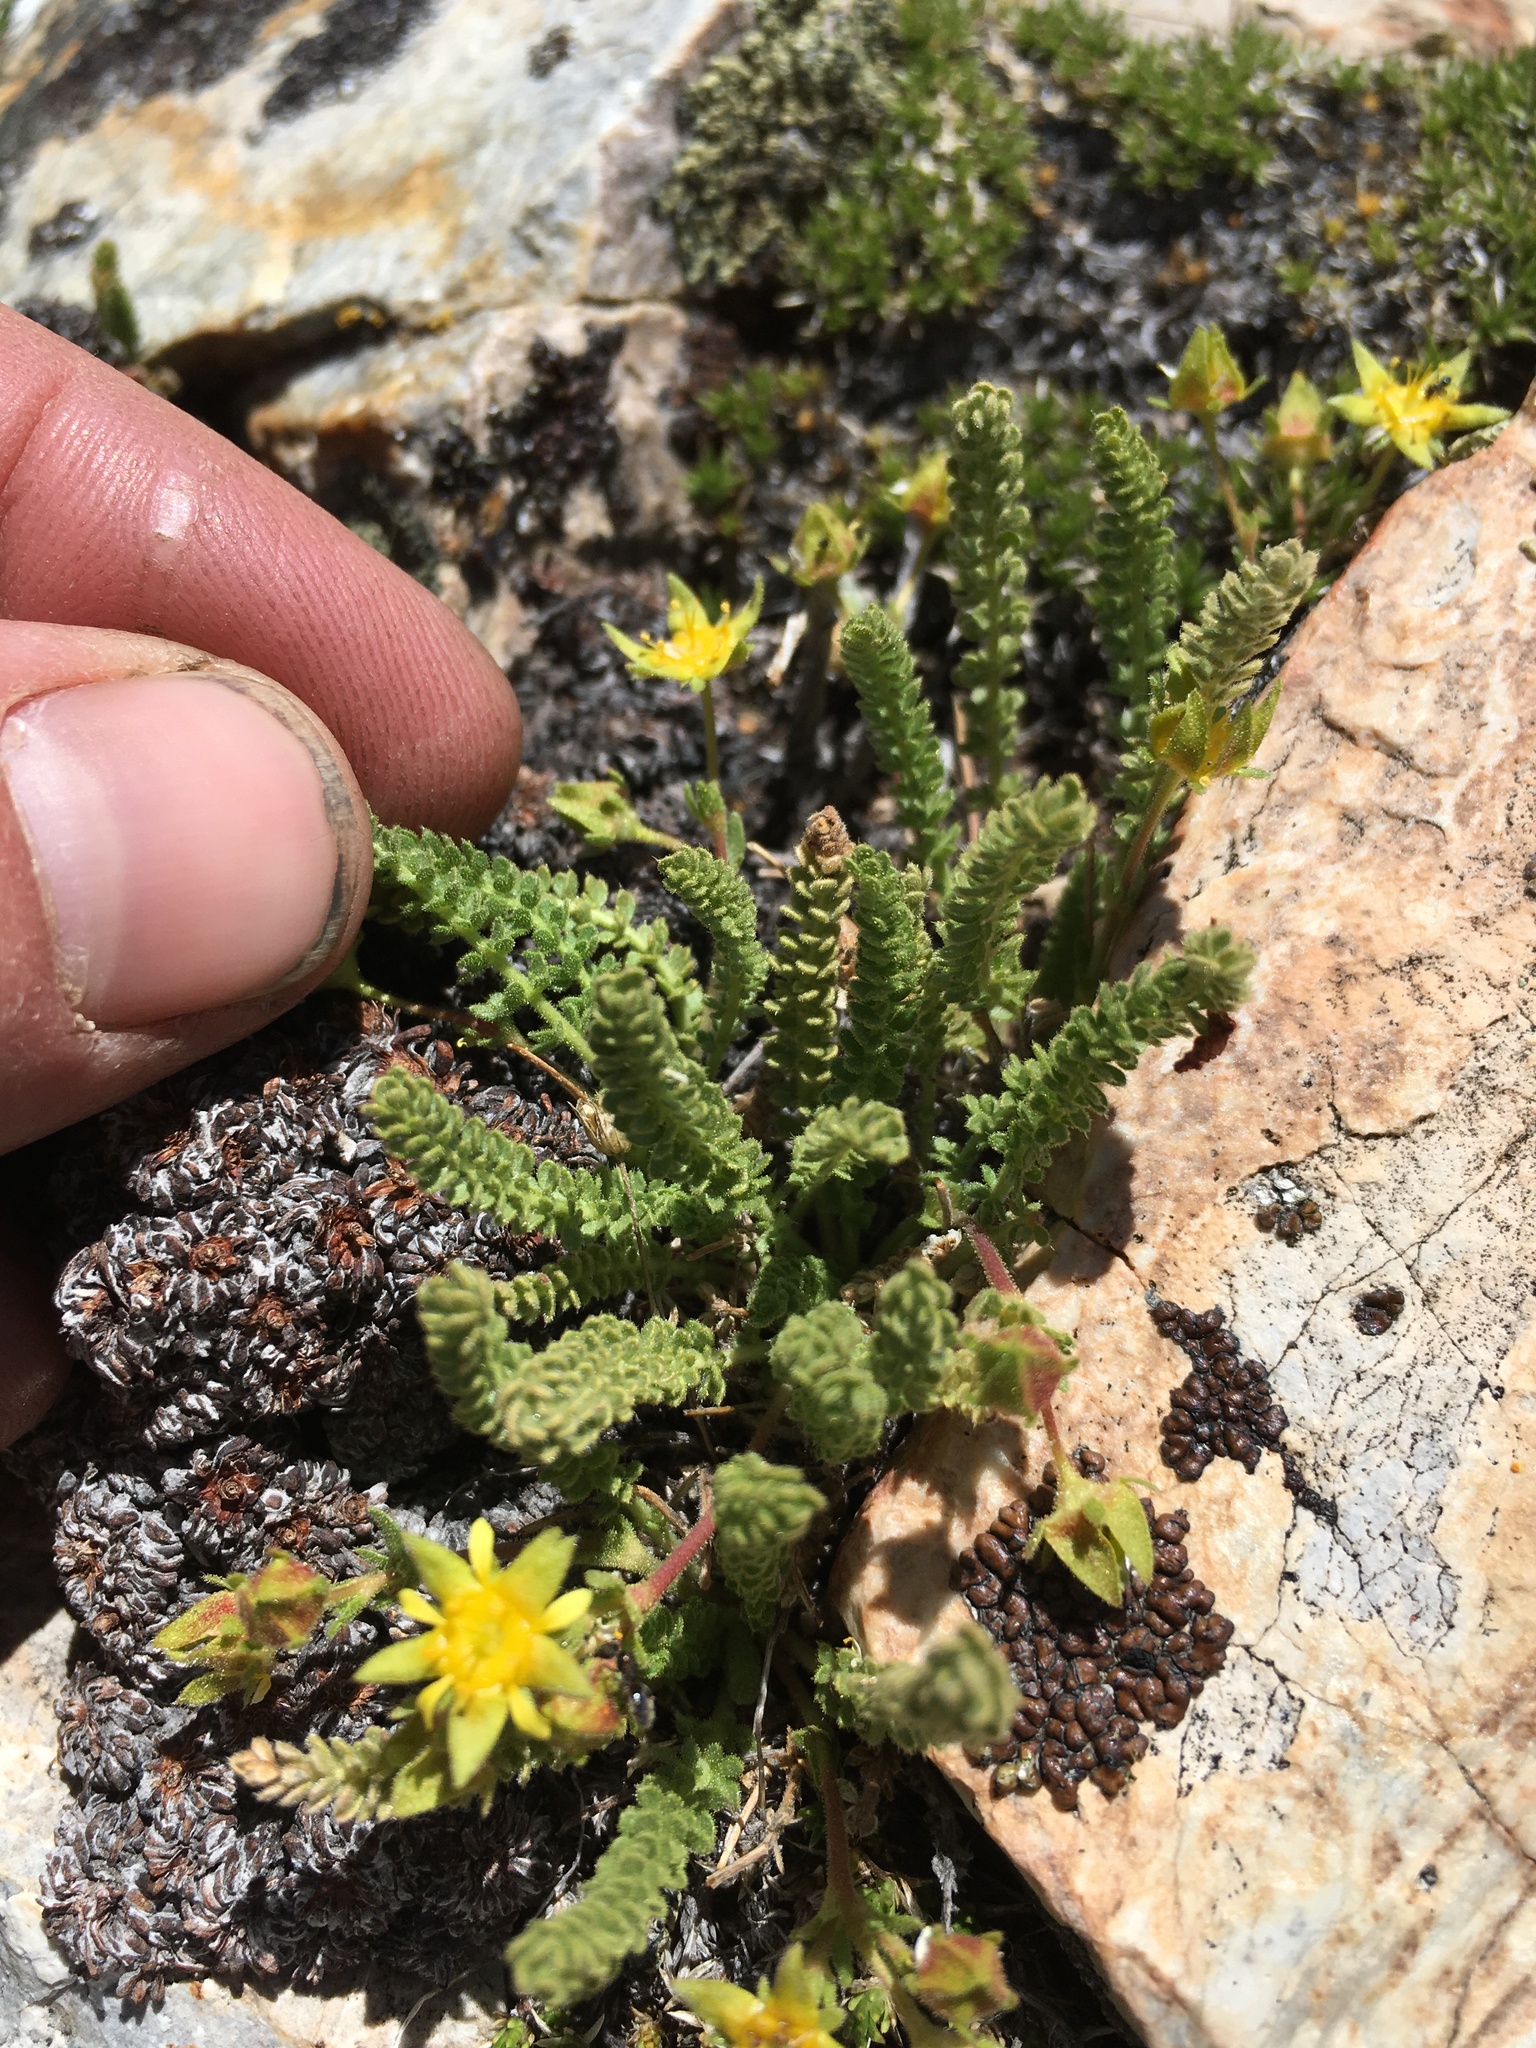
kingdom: Plantae
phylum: Tracheophyta
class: Magnoliopsida
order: Rosales
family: Rosaceae
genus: Potentilla
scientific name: Potentilla shockleyi
